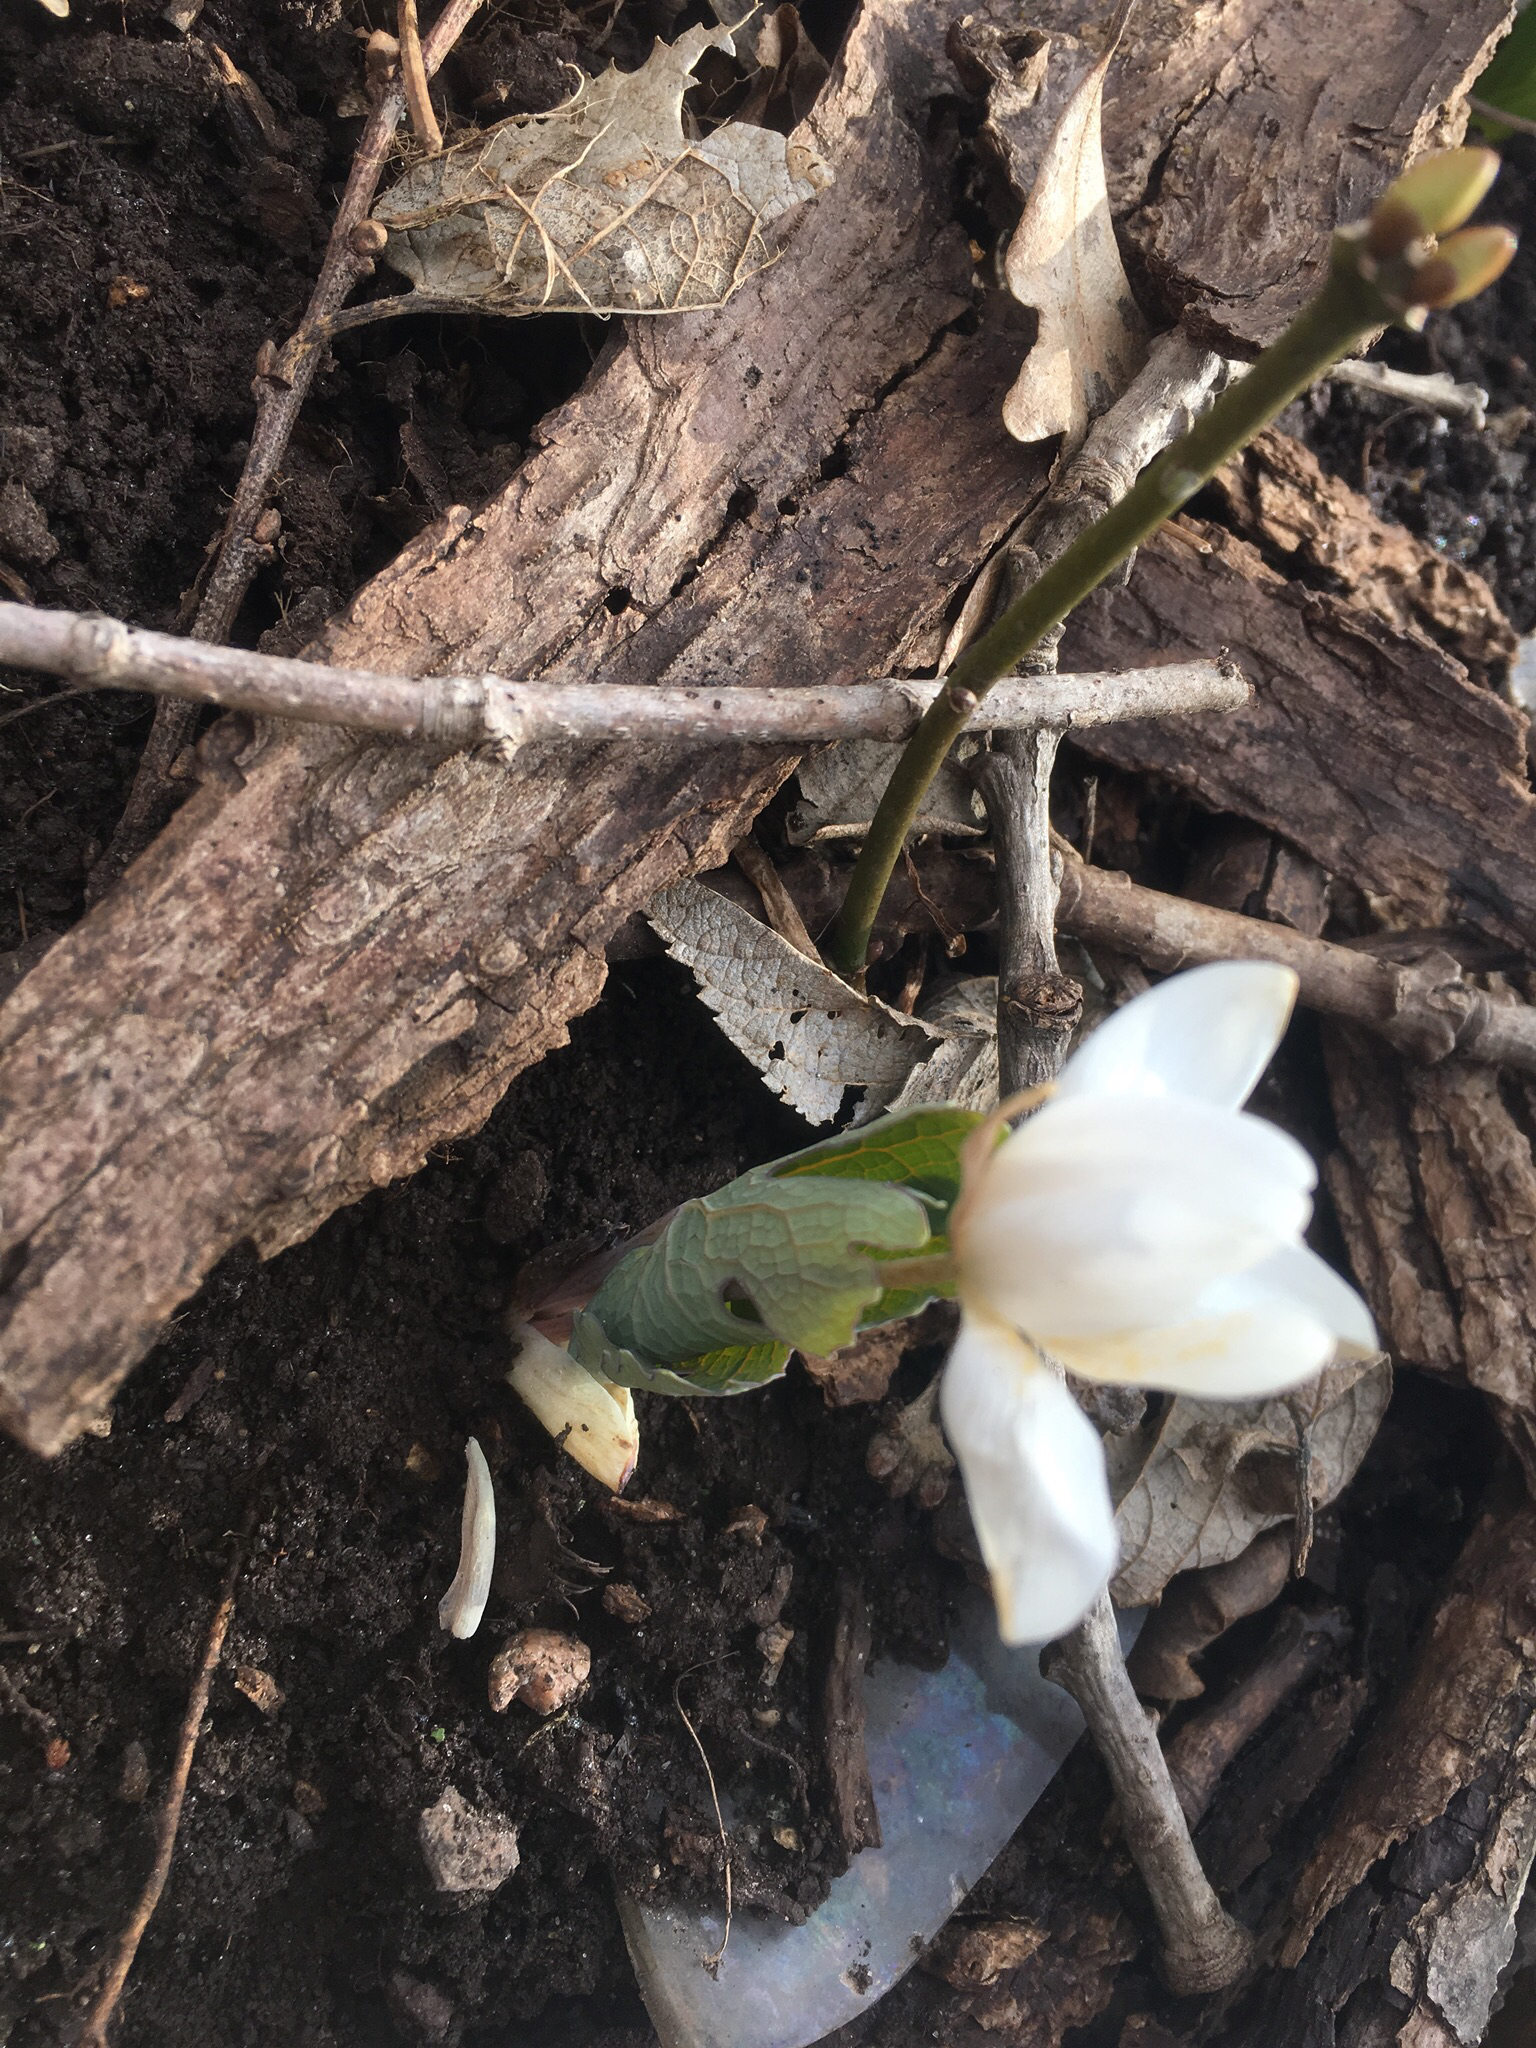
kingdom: Plantae
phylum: Tracheophyta
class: Magnoliopsida
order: Ranunculales
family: Papaveraceae
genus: Sanguinaria
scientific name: Sanguinaria canadensis
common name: Bloodroot
